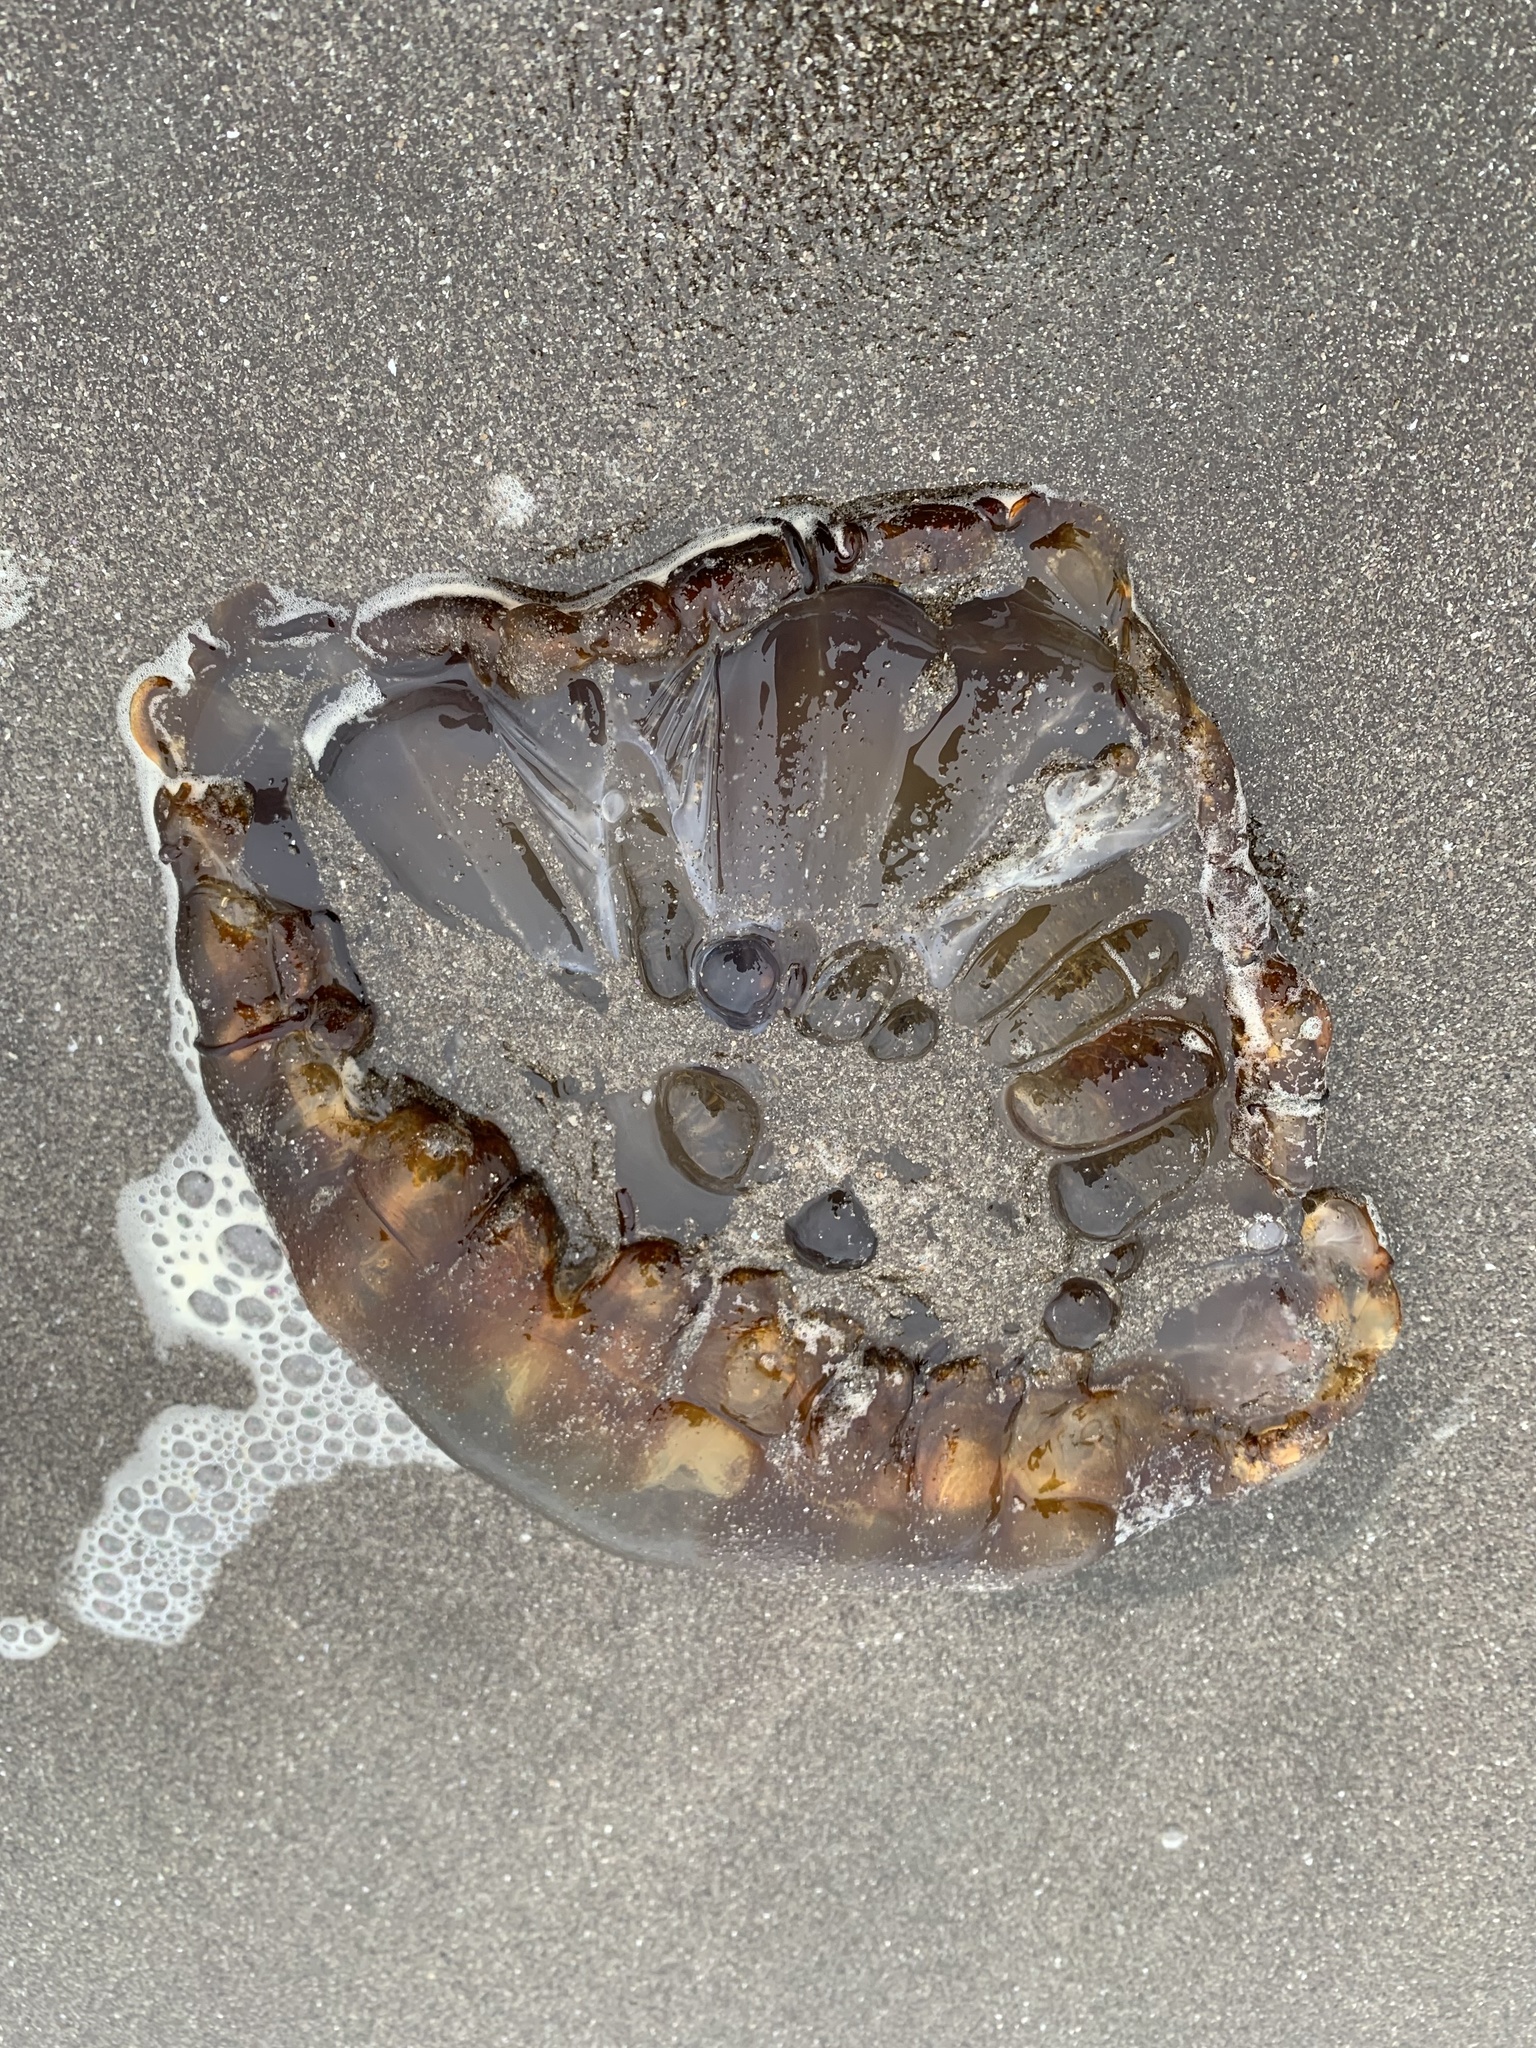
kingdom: Animalia
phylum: Cnidaria
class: Scyphozoa
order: Semaeostomeae
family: Pelagiidae
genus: Chrysaora
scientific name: Chrysaora fuscescens
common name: Sea nettle
